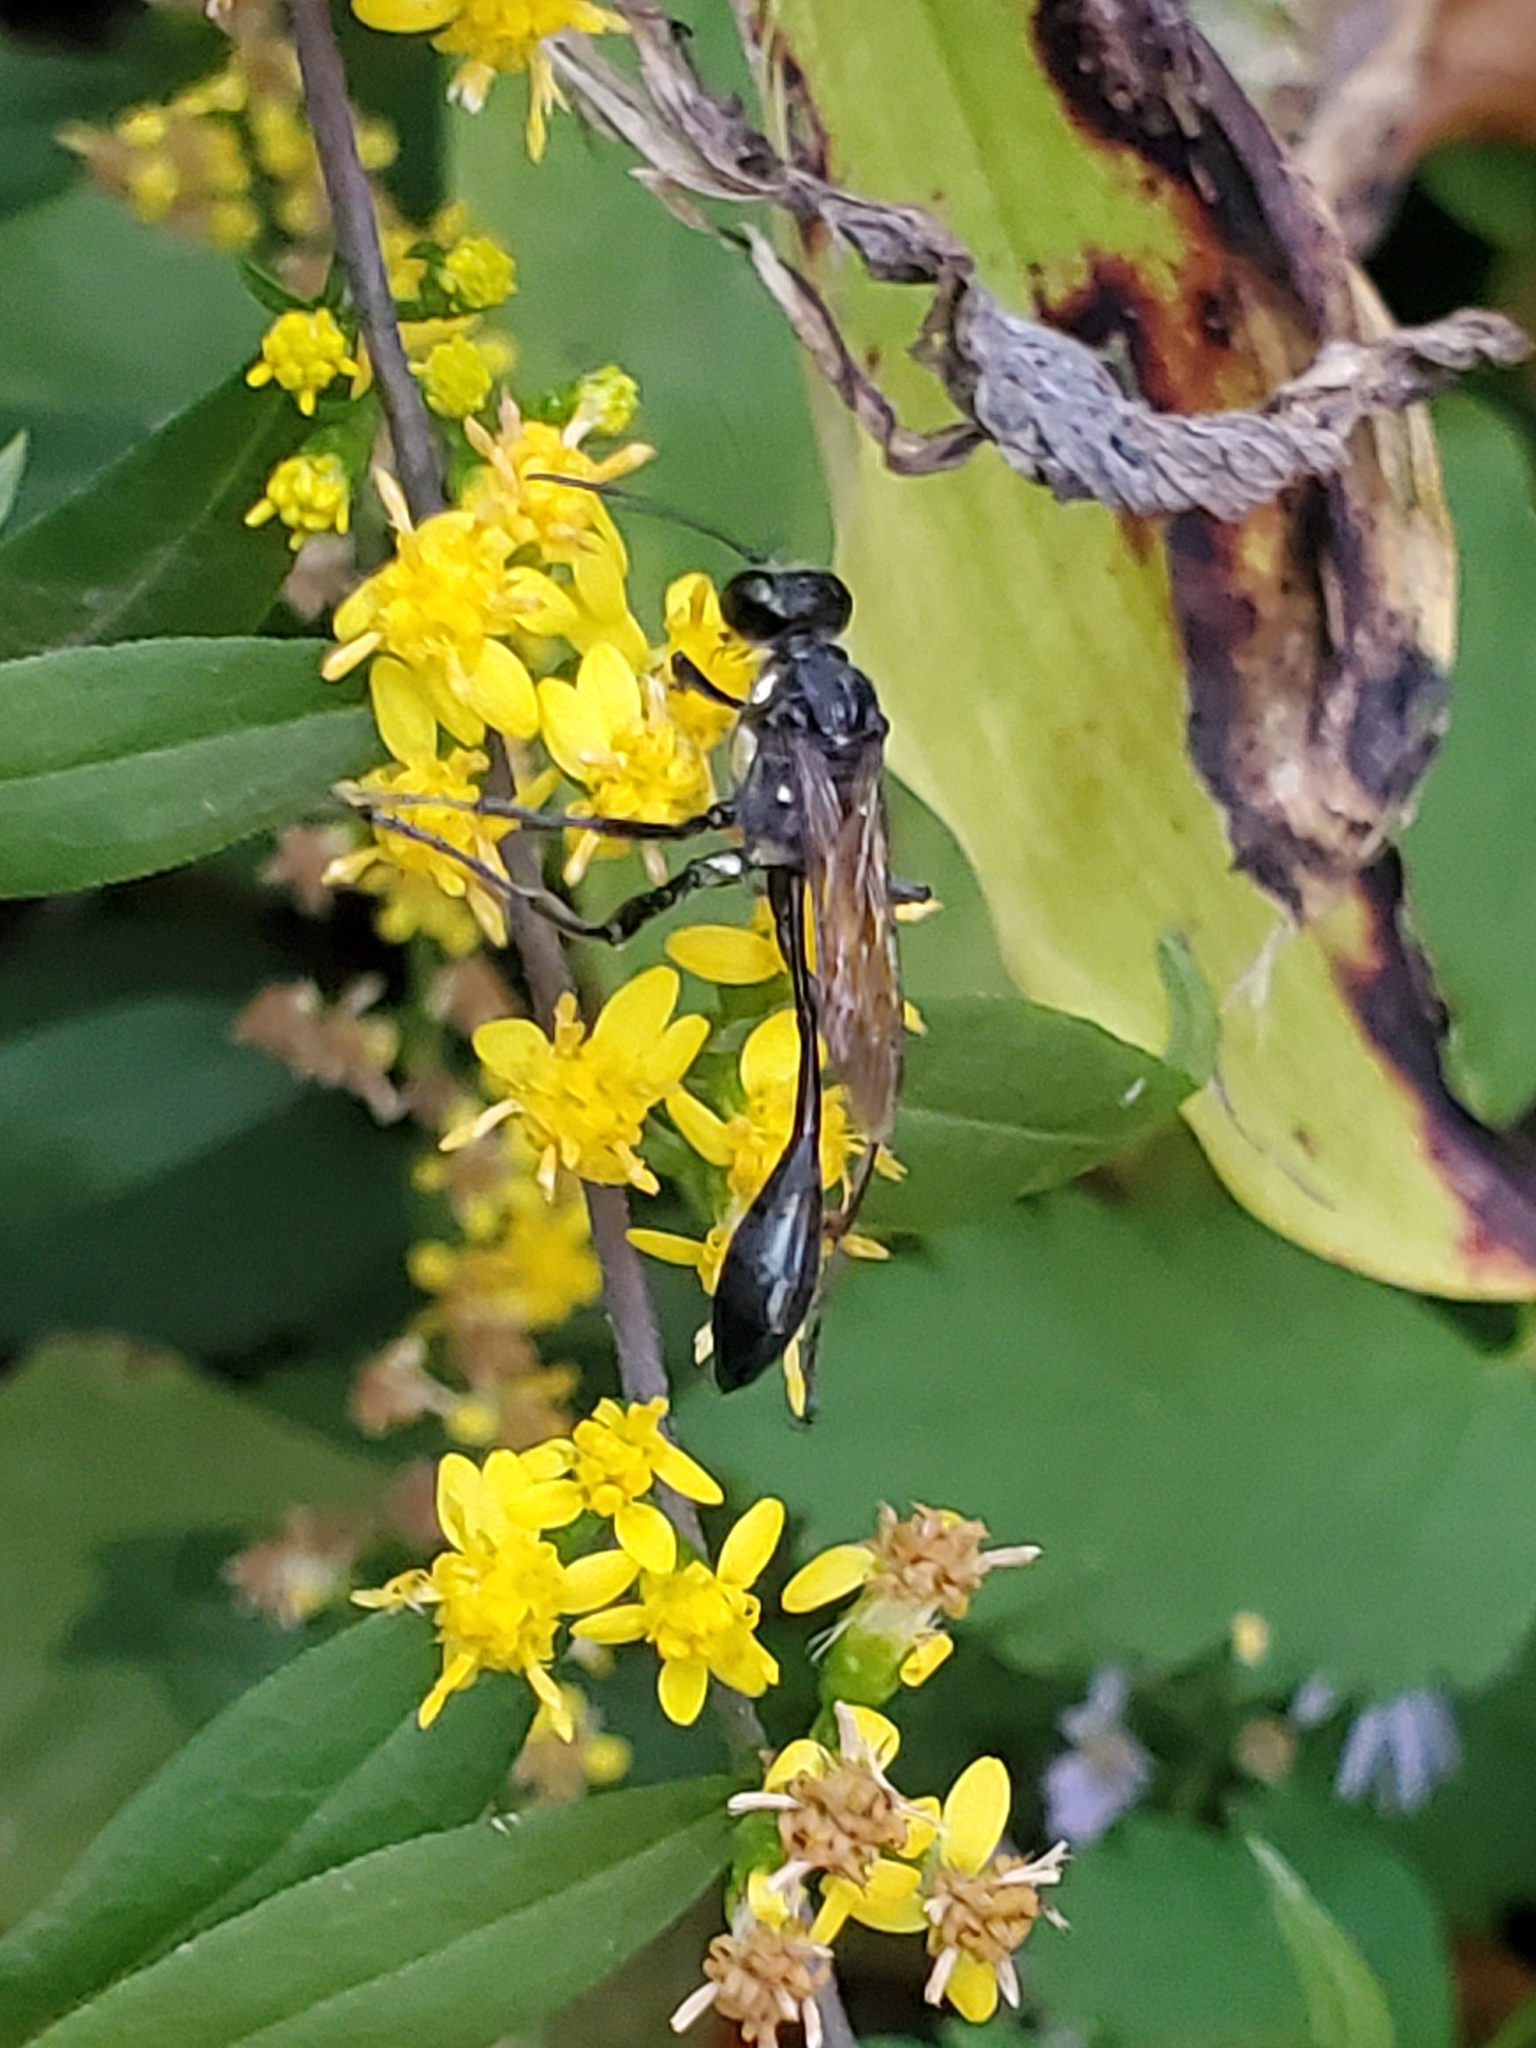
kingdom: Animalia
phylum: Arthropoda
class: Insecta
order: Hymenoptera
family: Sphecidae
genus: Eremnophila
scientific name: Eremnophila aureonotata
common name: Gold-marked thread-waisted wasp
